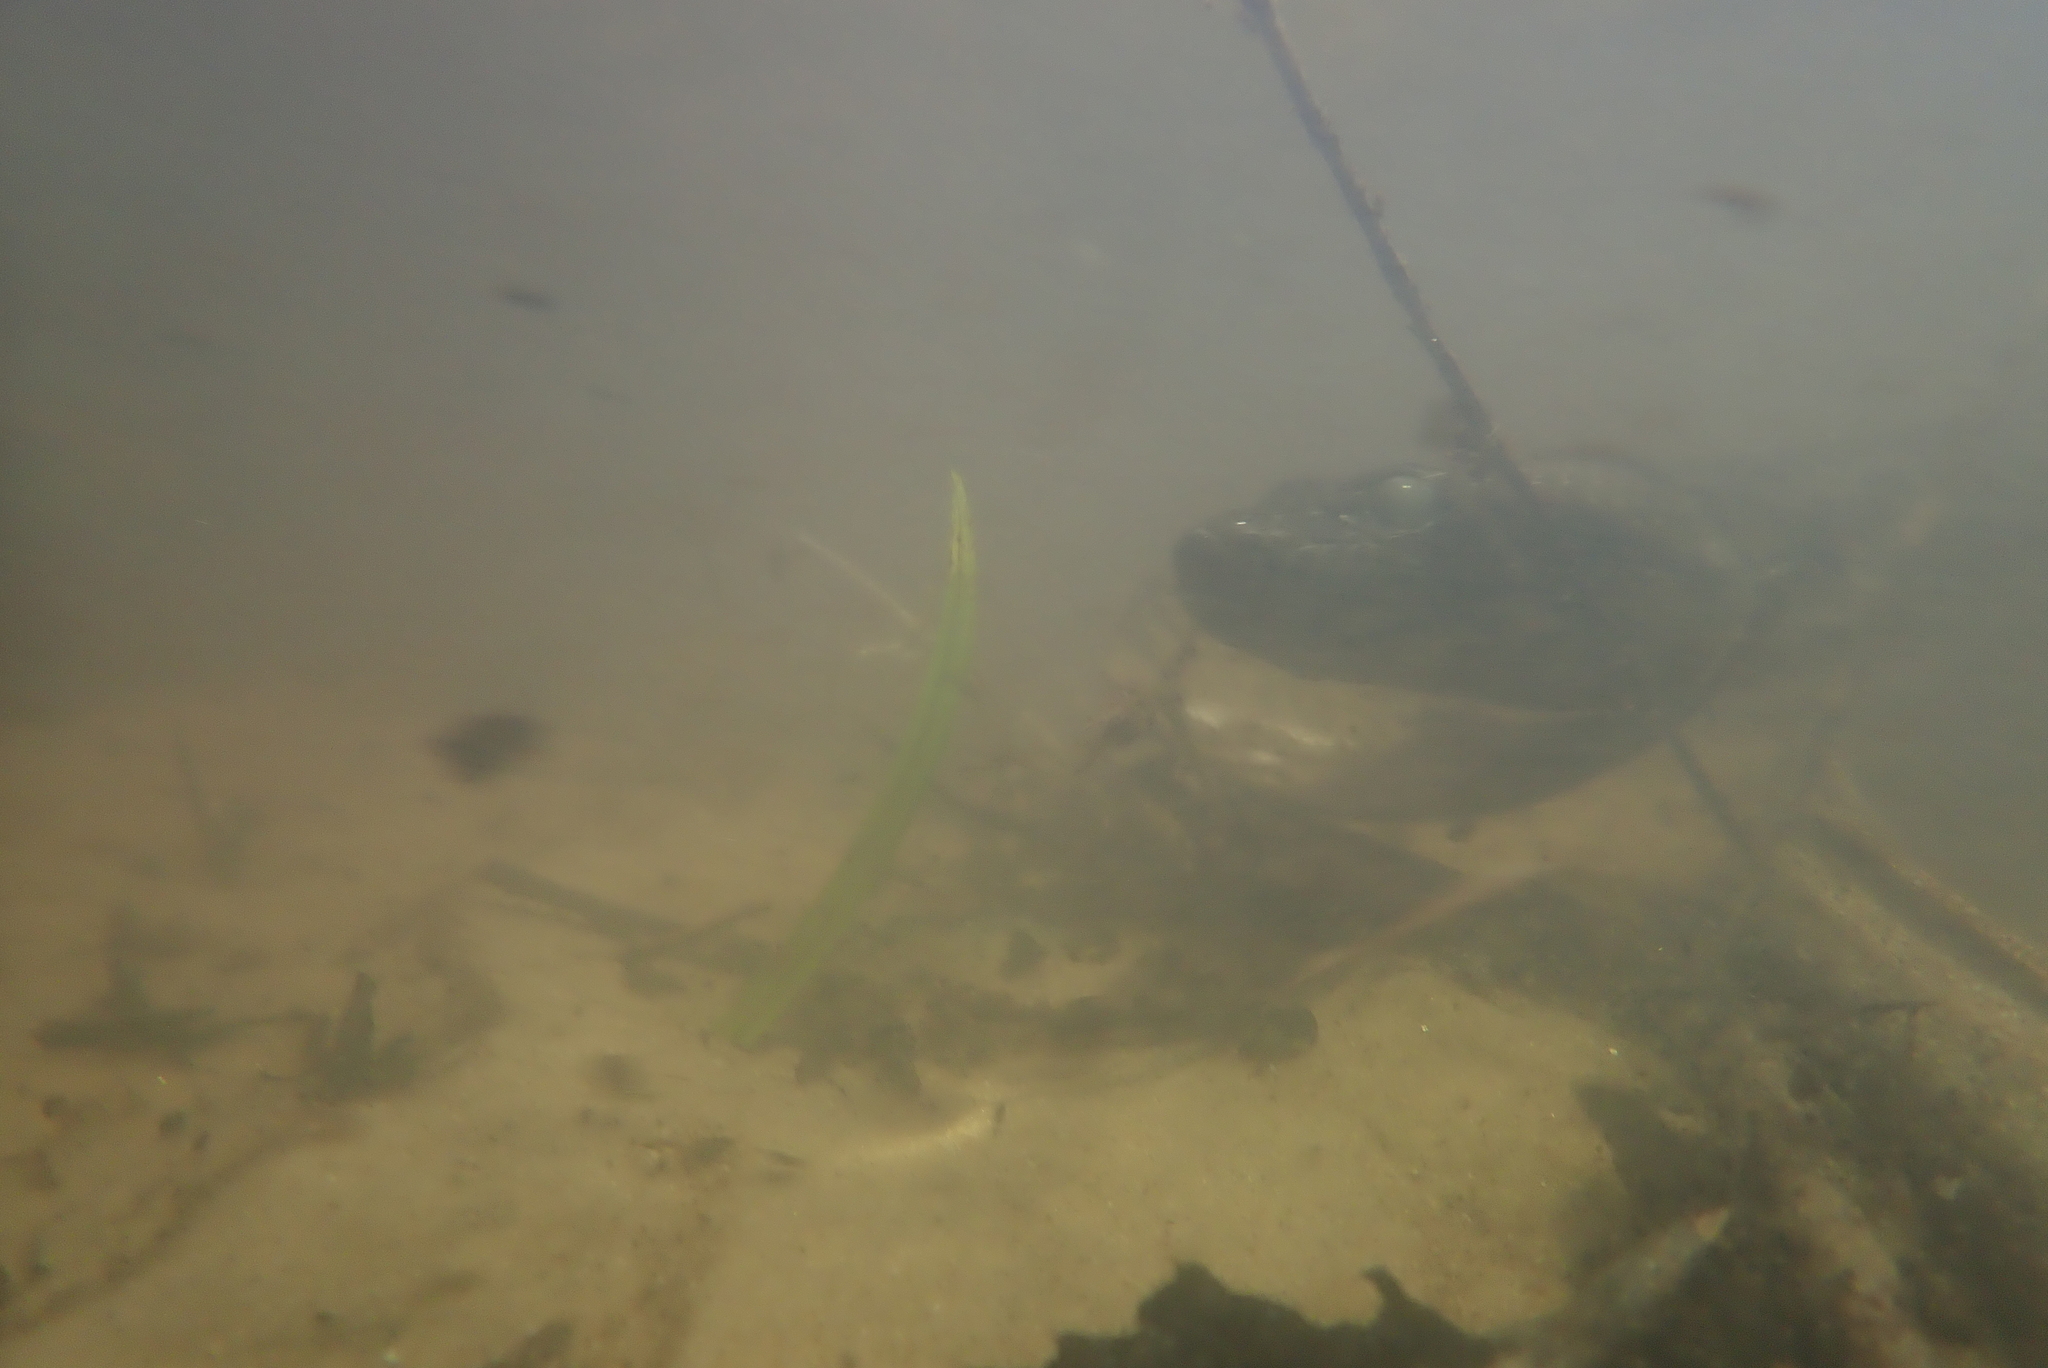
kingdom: Animalia
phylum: Chordata
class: Squamata
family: Boidae
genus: Eunectes
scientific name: Eunectes murinus
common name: Anaconda
